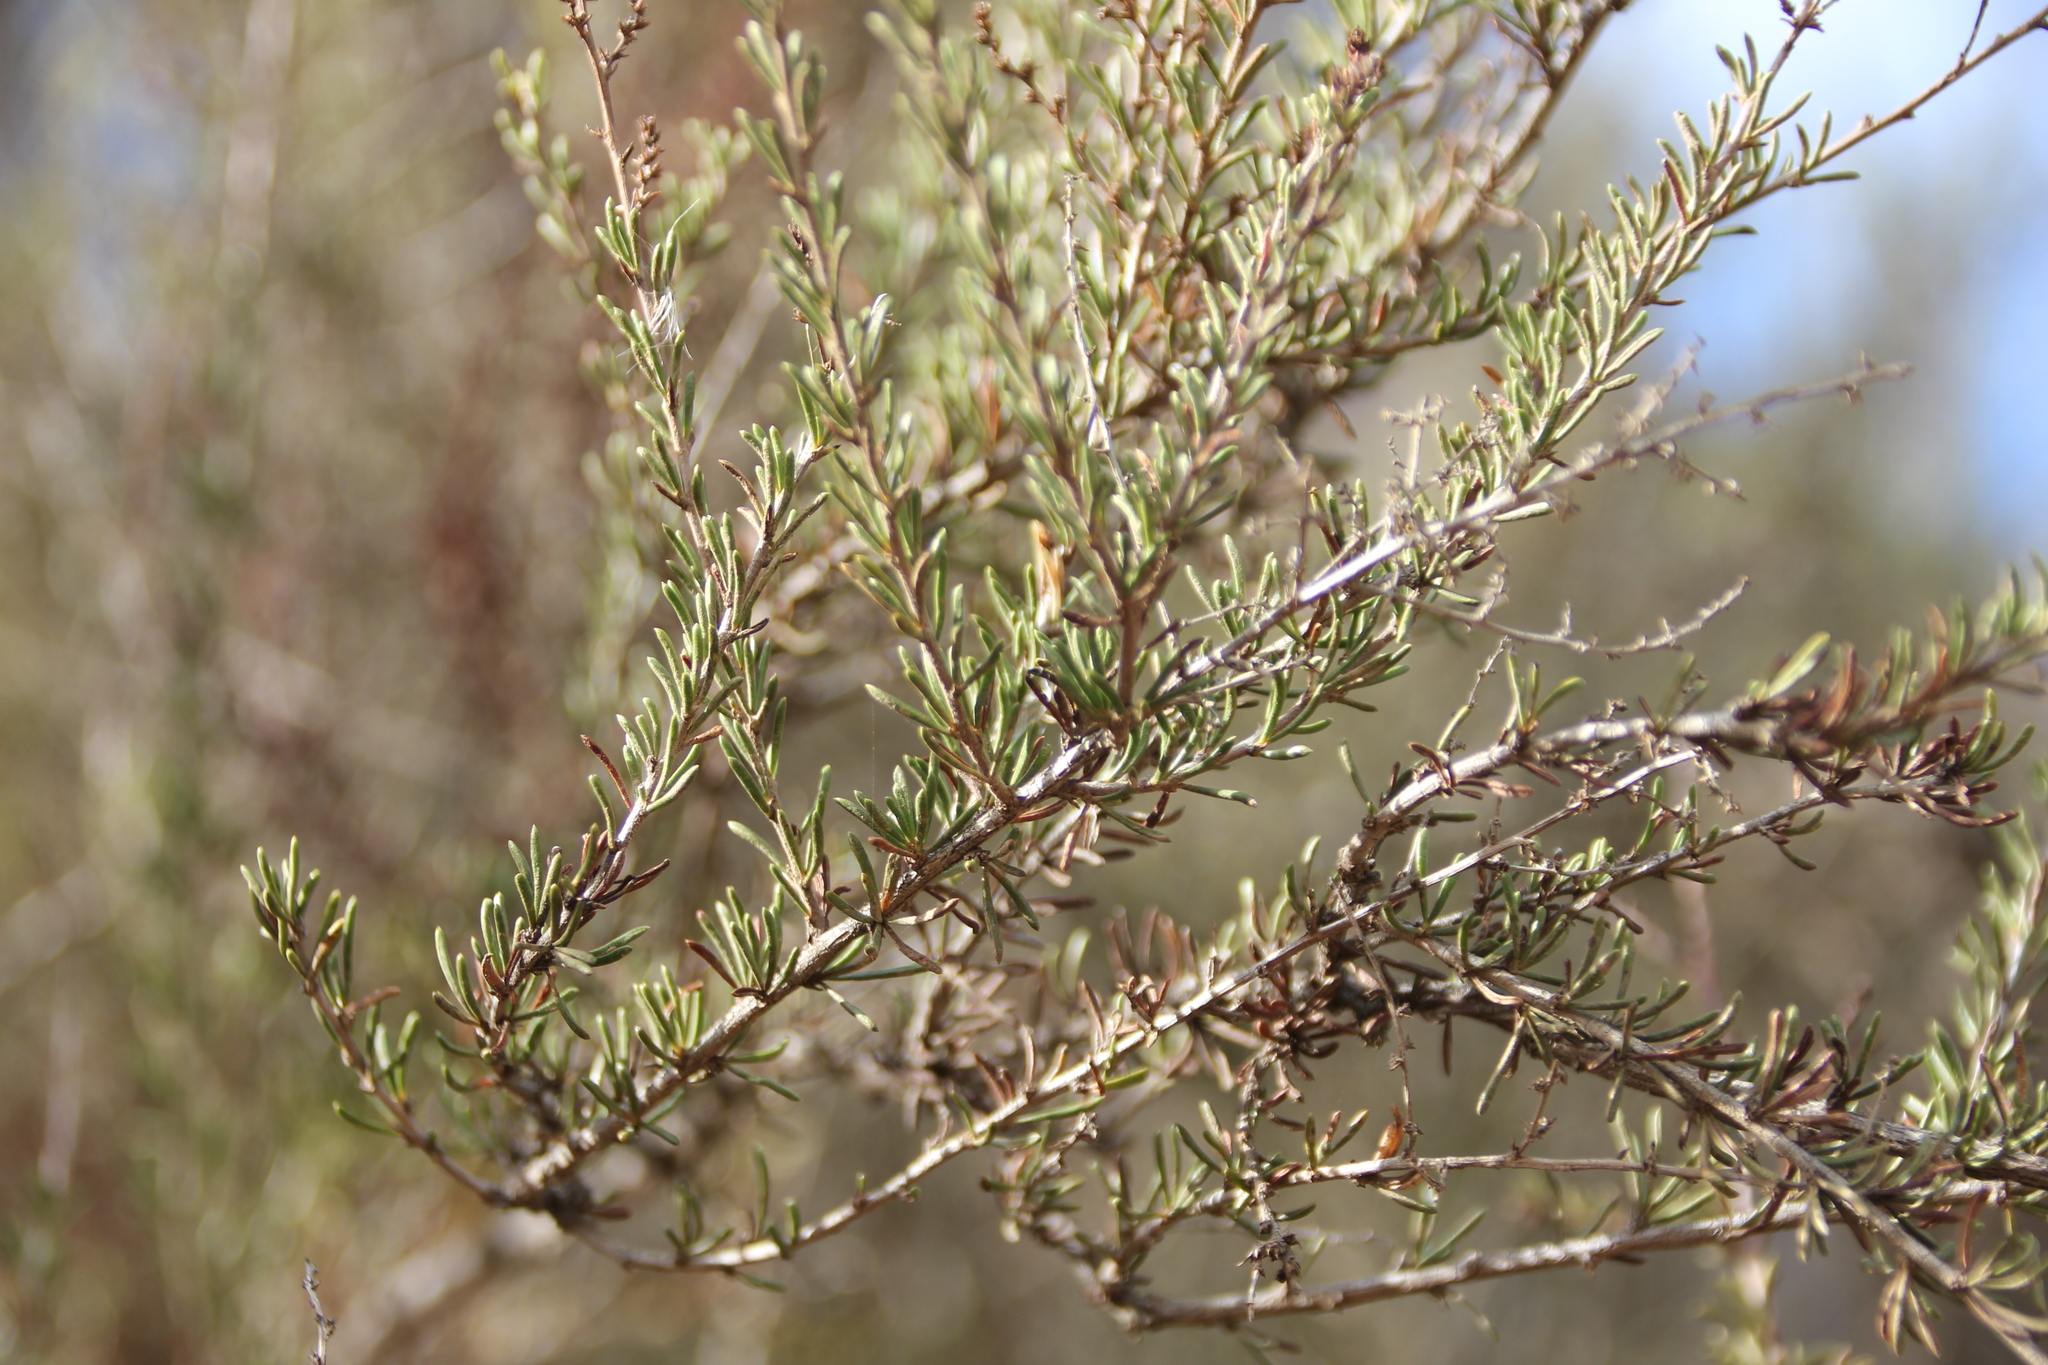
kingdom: Plantae
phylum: Tracheophyta
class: Magnoliopsida
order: Rosales
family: Rosaceae
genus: Adenostoma
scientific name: Adenostoma fasciculatum
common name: Chamise
